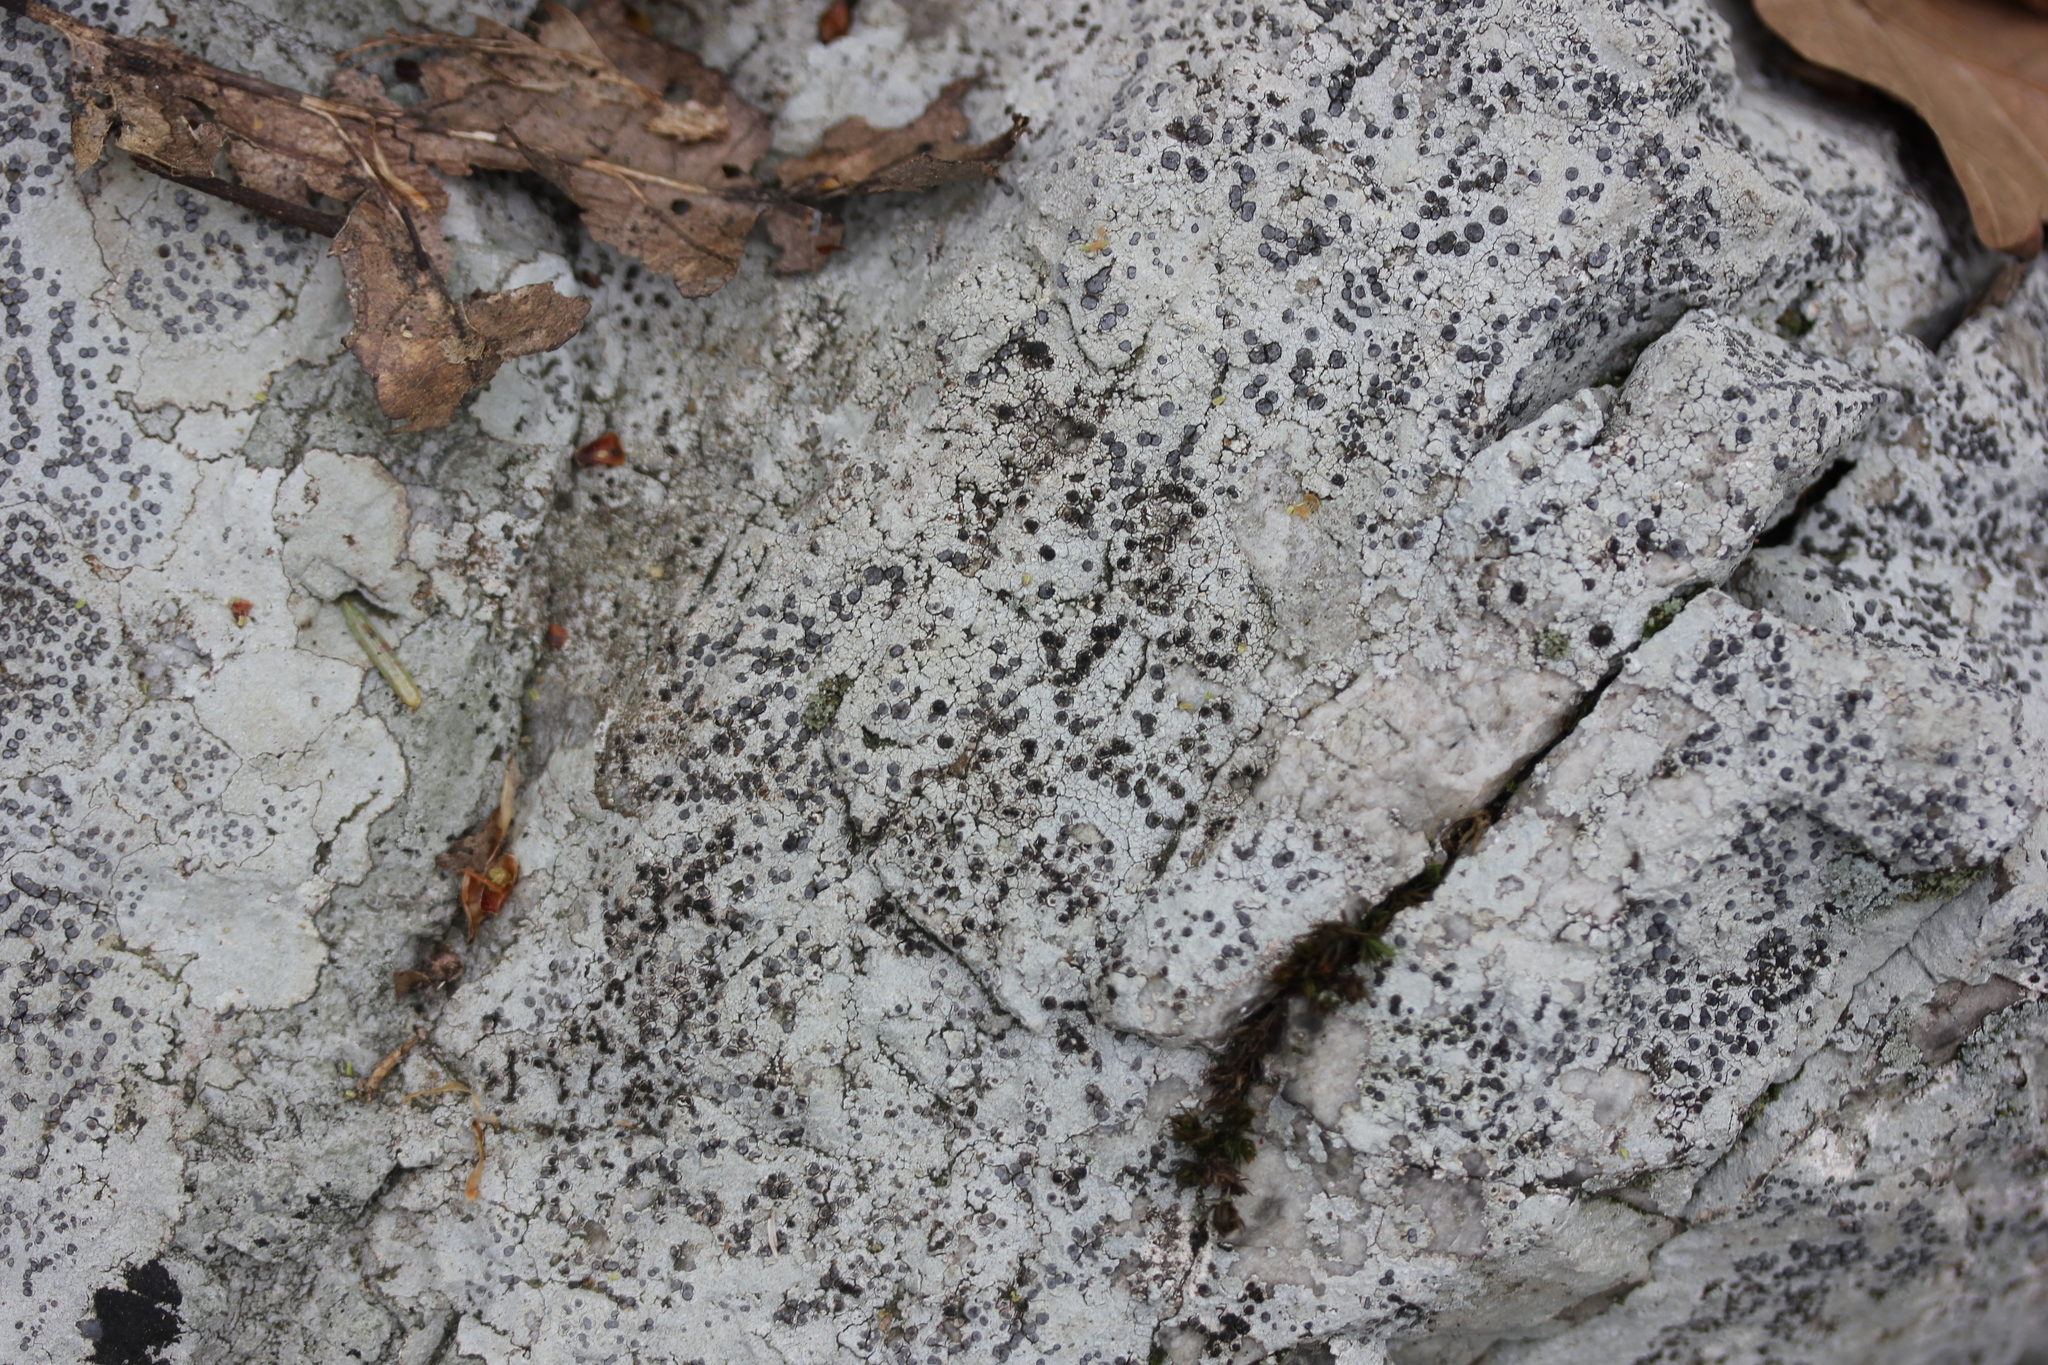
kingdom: Fungi
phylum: Ascomycota
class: Lecanoromycetes
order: Lecideales
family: Lecideaceae
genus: Porpidia
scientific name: Porpidia albocaerulescens
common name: Smokey-eyed boulder lichen
